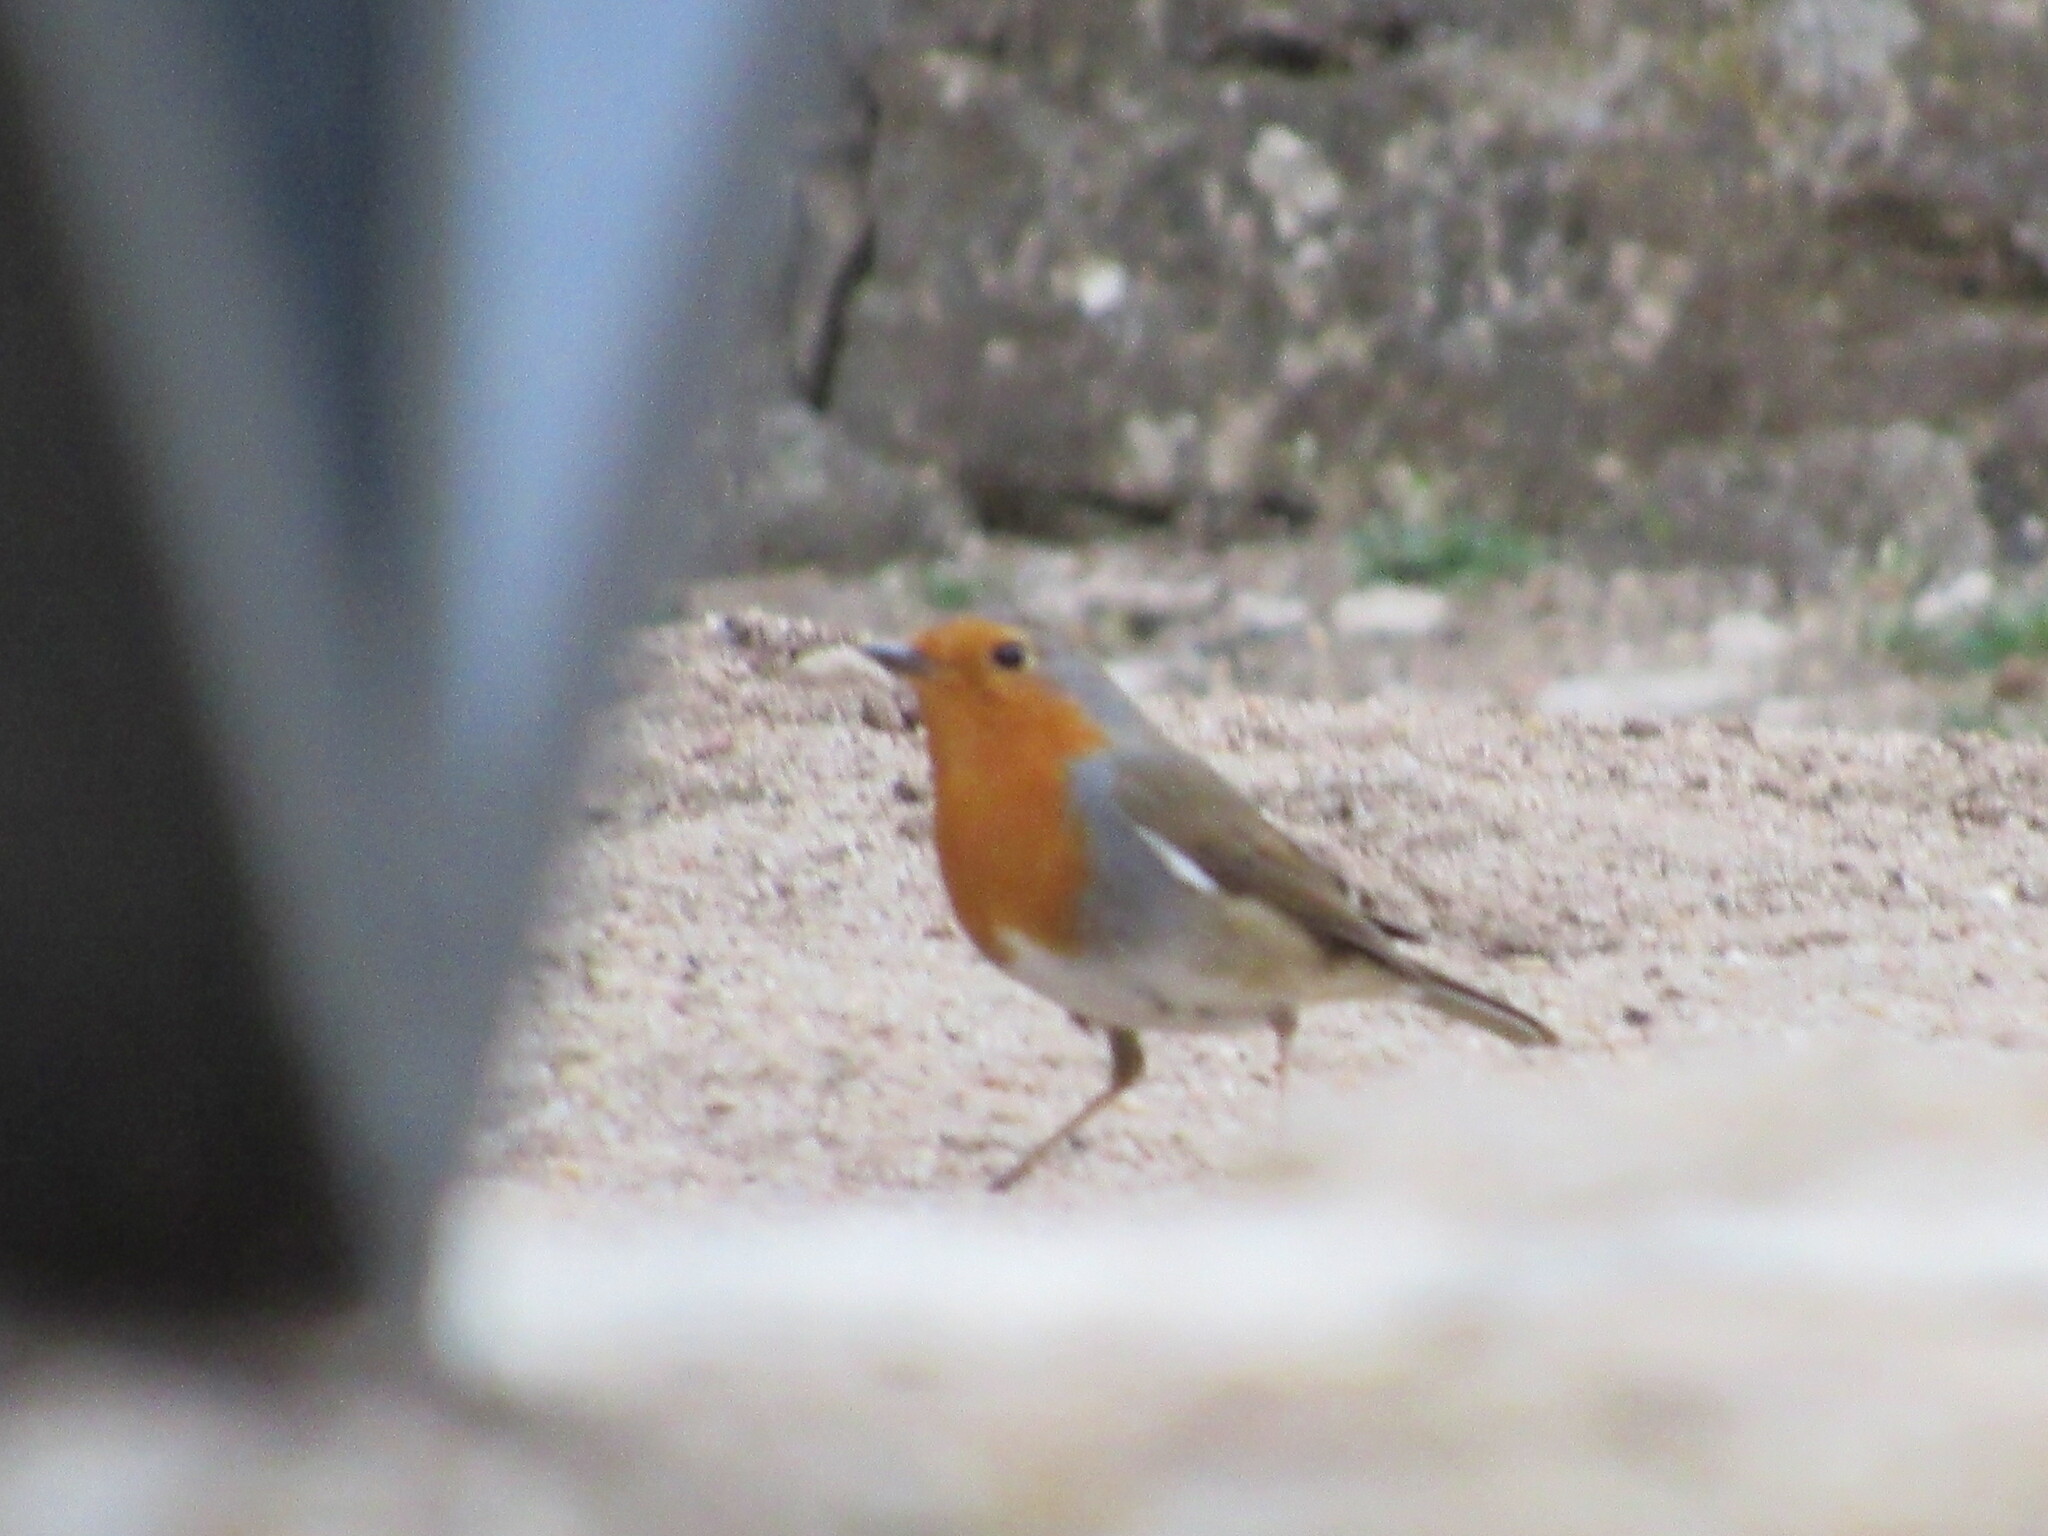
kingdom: Animalia
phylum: Chordata
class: Aves
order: Passeriformes
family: Muscicapidae
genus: Erithacus
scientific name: Erithacus rubecula
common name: European robin
